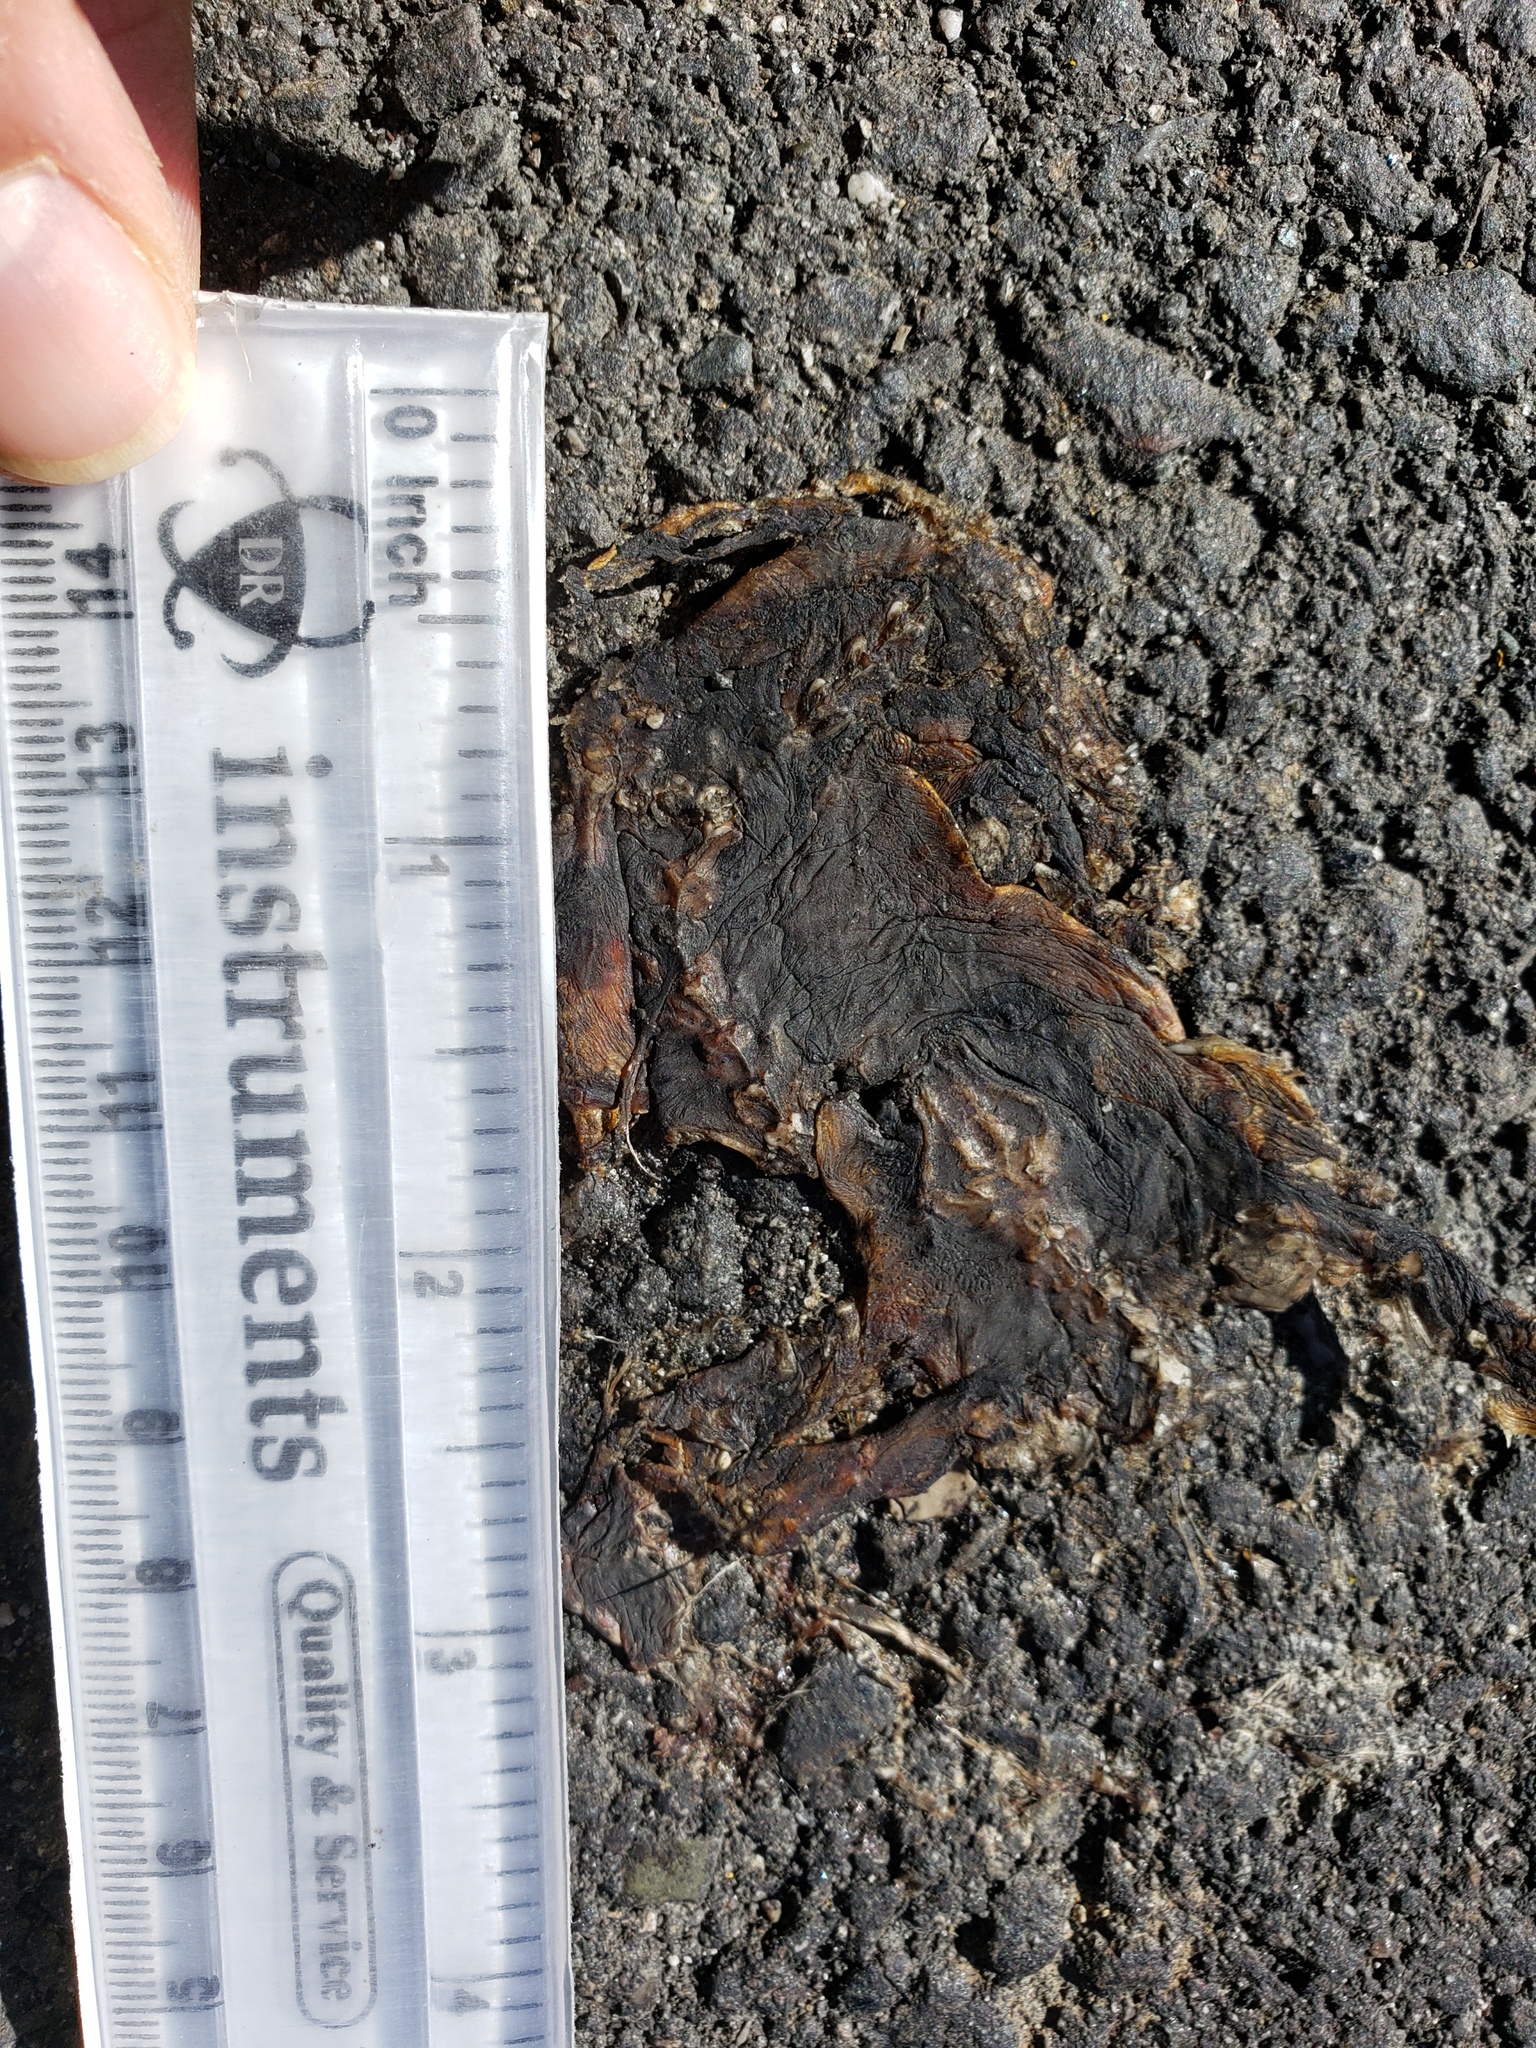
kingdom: Animalia
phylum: Chordata
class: Amphibia
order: Caudata
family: Salamandridae
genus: Taricha
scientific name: Taricha
